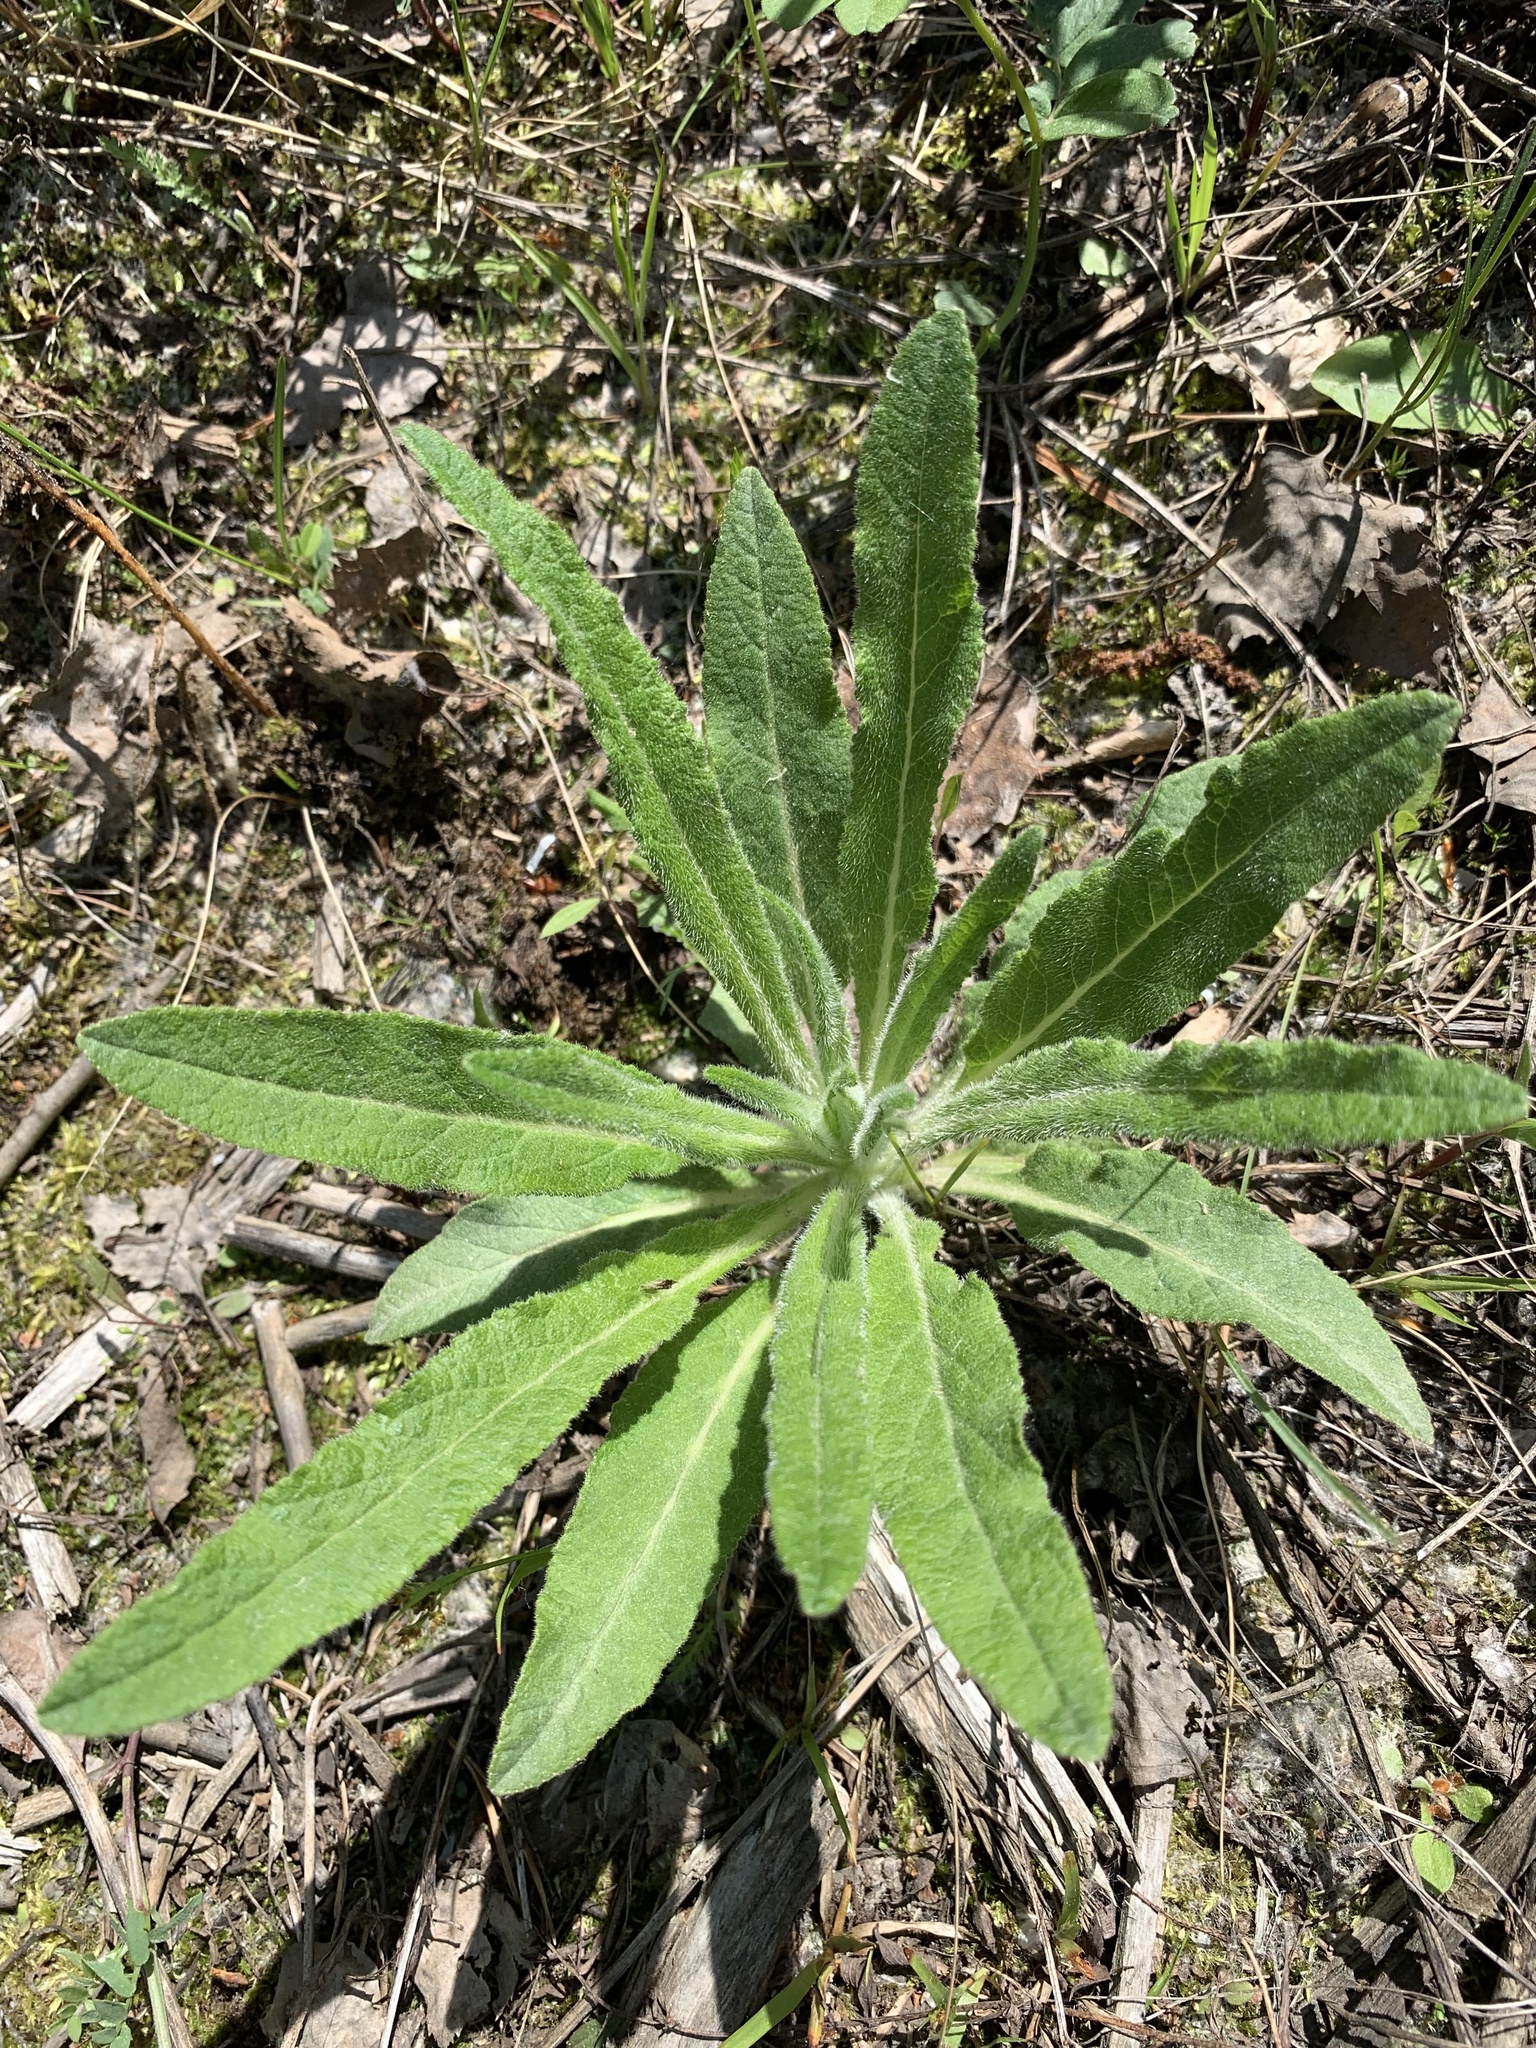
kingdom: Plantae
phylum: Tracheophyta
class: Magnoliopsida
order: Asterales
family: Campanulaceae
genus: Campanula
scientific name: Campanula cervicaria
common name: Bristly bellflower
